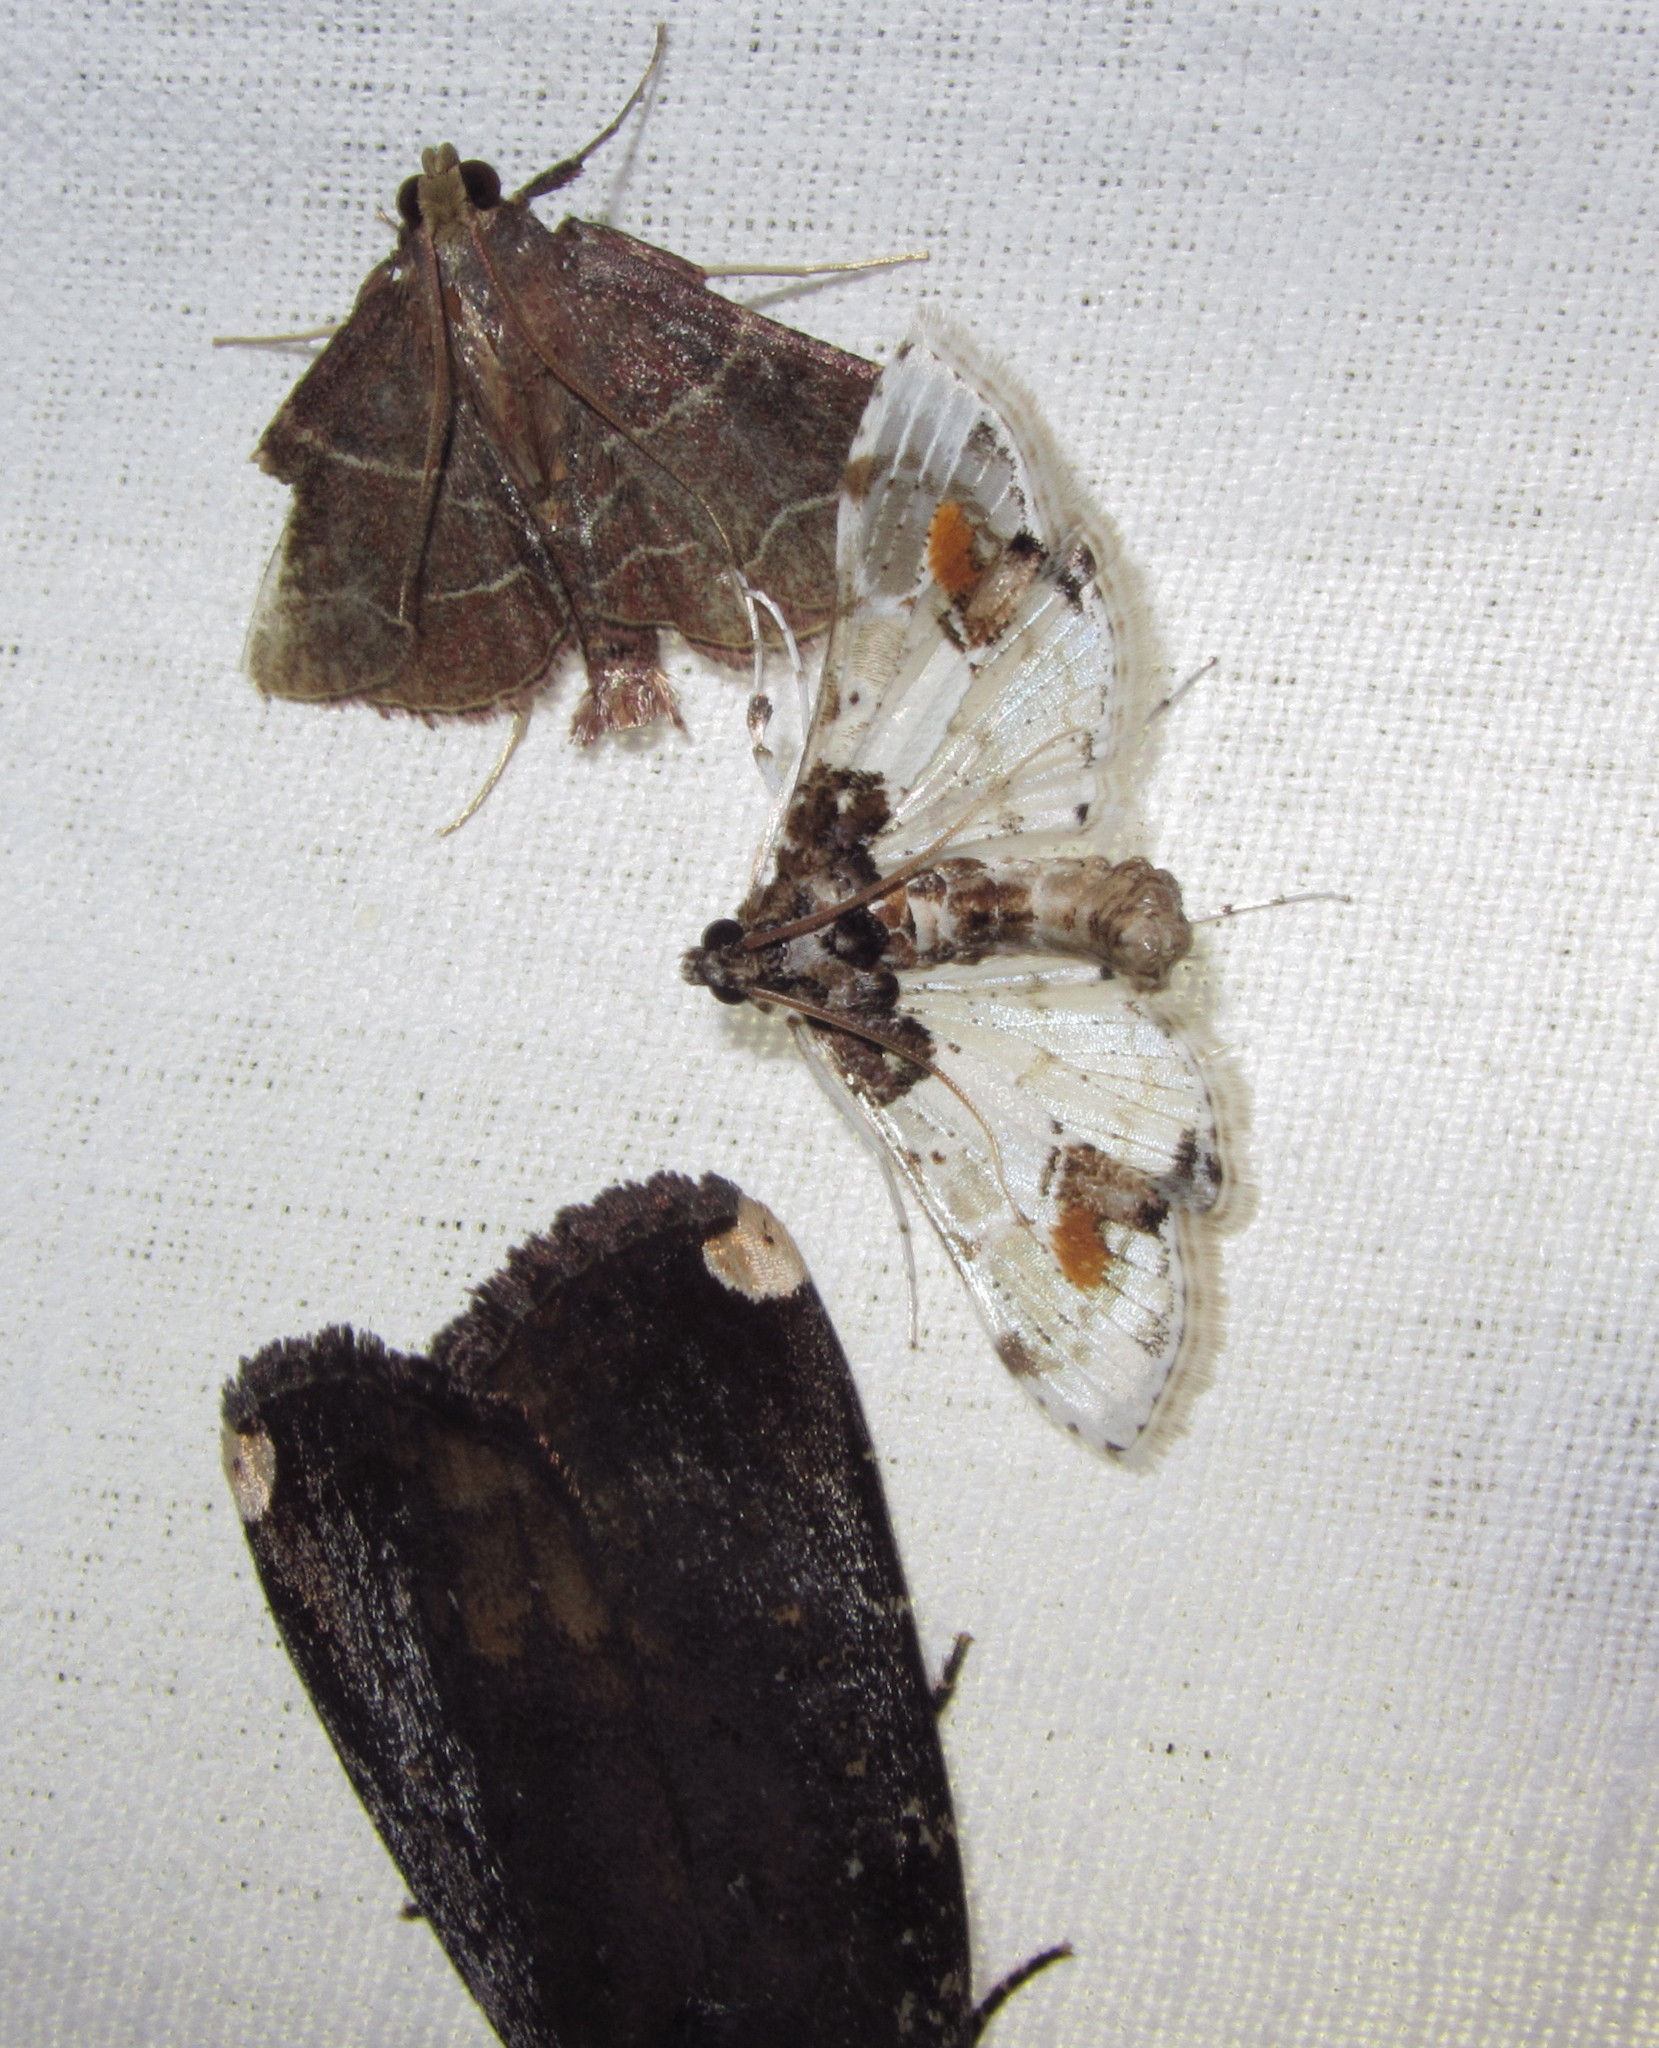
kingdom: Animalia
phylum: Arthropoda
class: Insecta
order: Lepidoptera
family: Crambidae
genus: Leucinodes
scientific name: Leucinodes orbonalis
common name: Aubergine pearl
